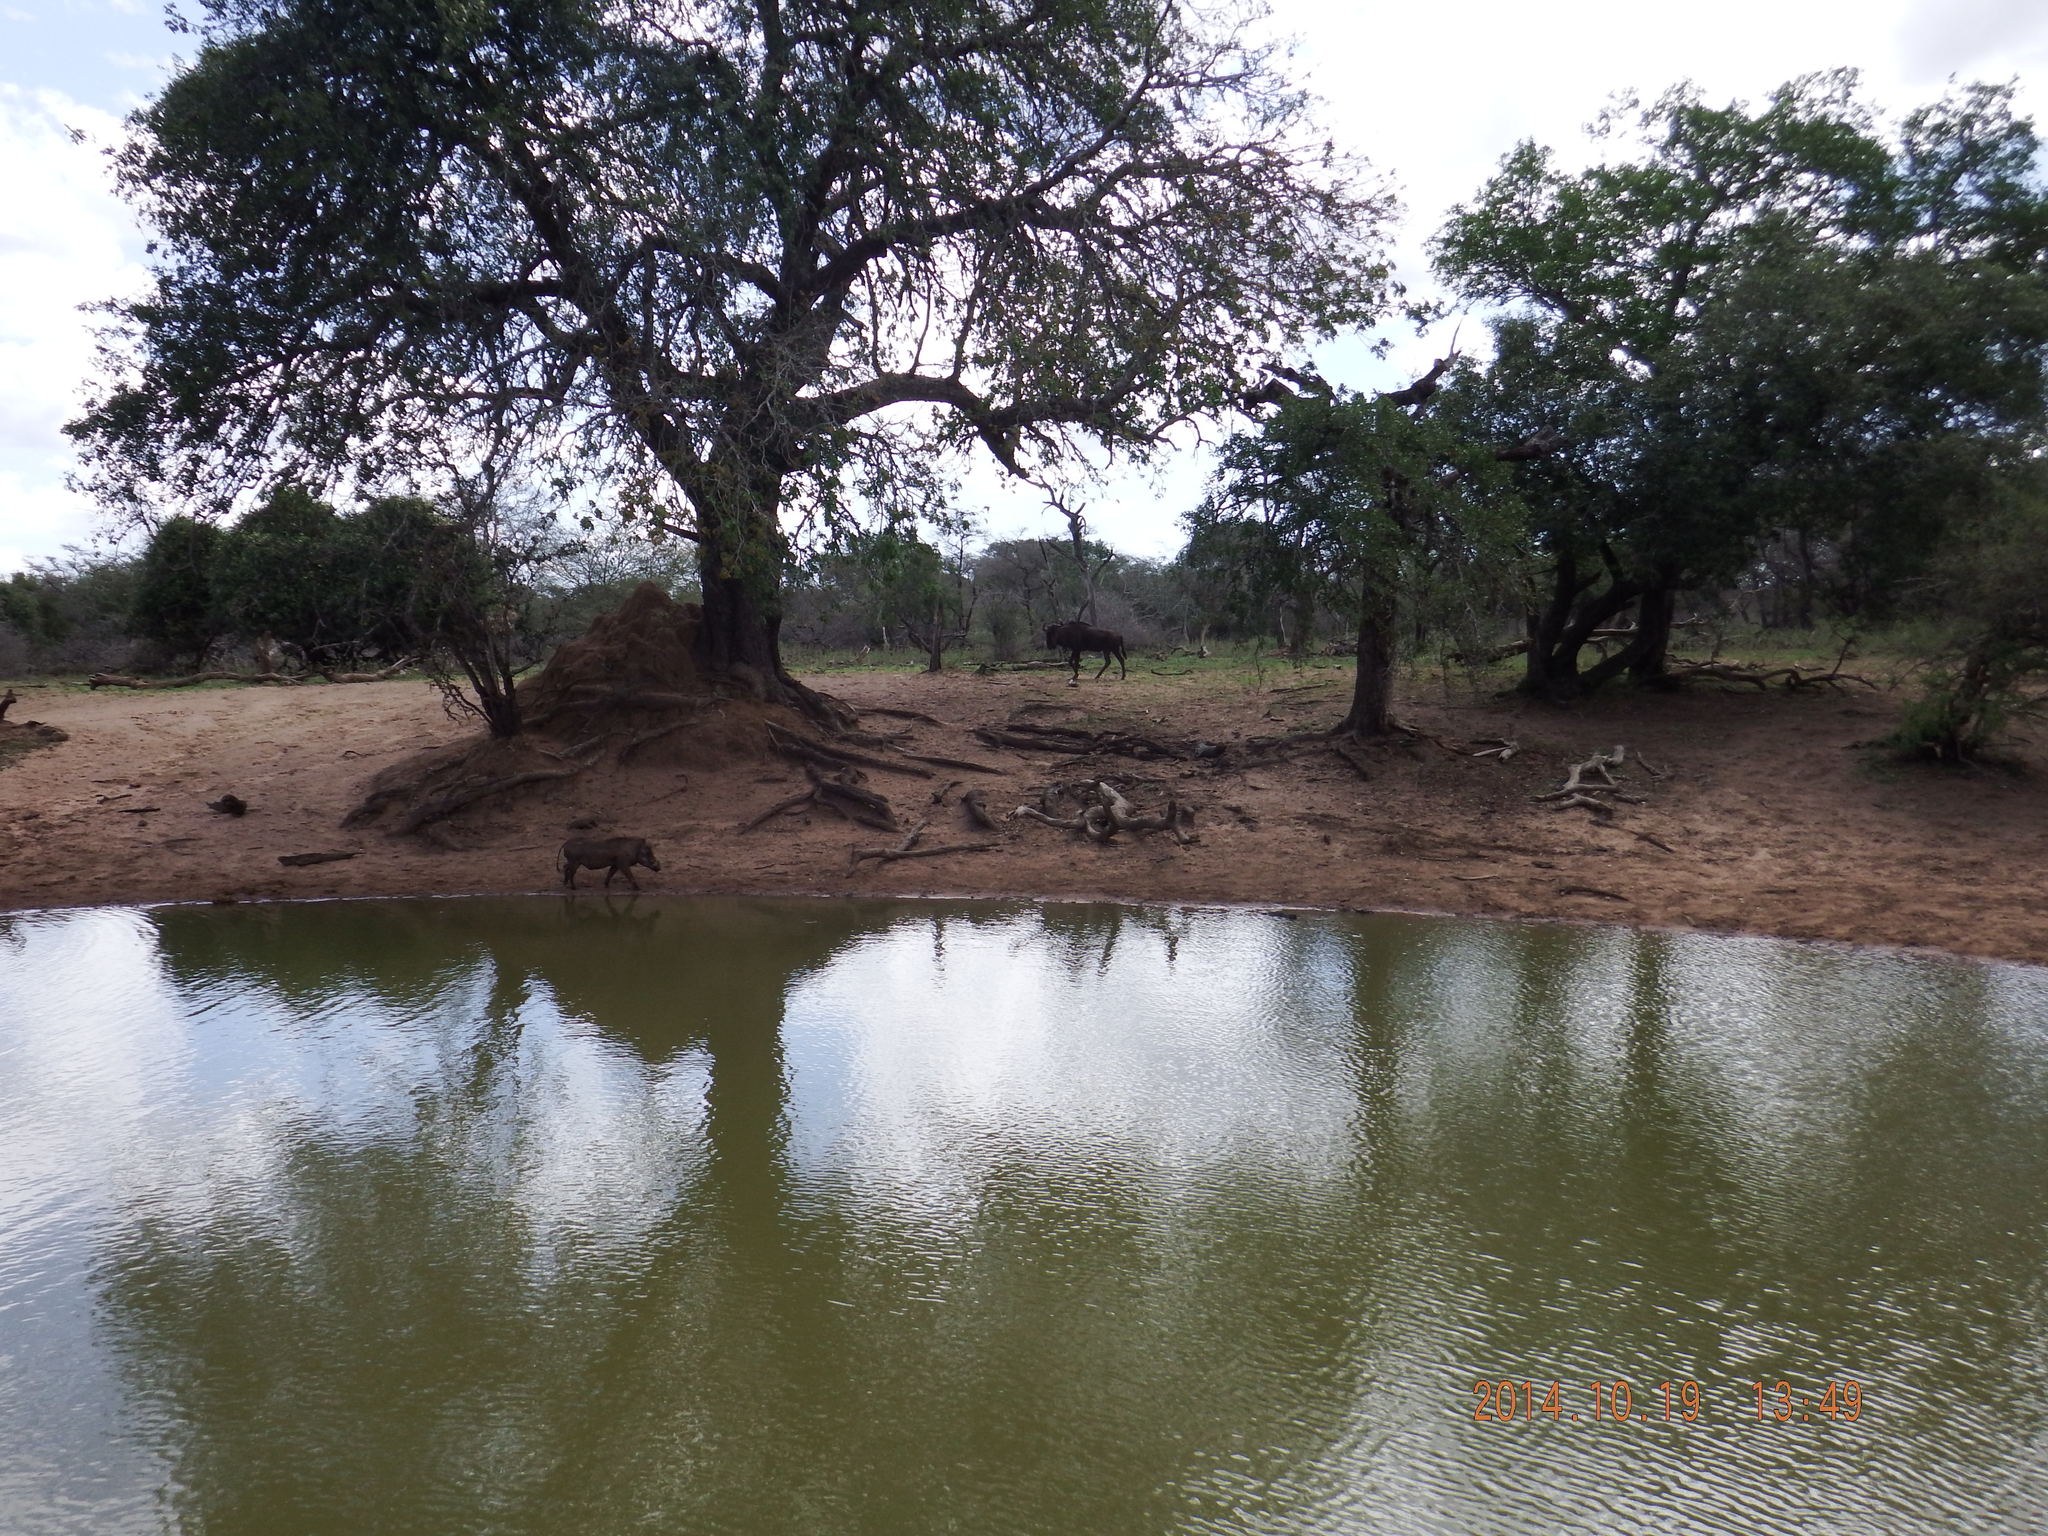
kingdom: Animalia
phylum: Chordata
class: Mammalia
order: Artiodactyla
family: Bovidae
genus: Connochaetes
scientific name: Connochaetes taurinus
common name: Blue wildebeest
